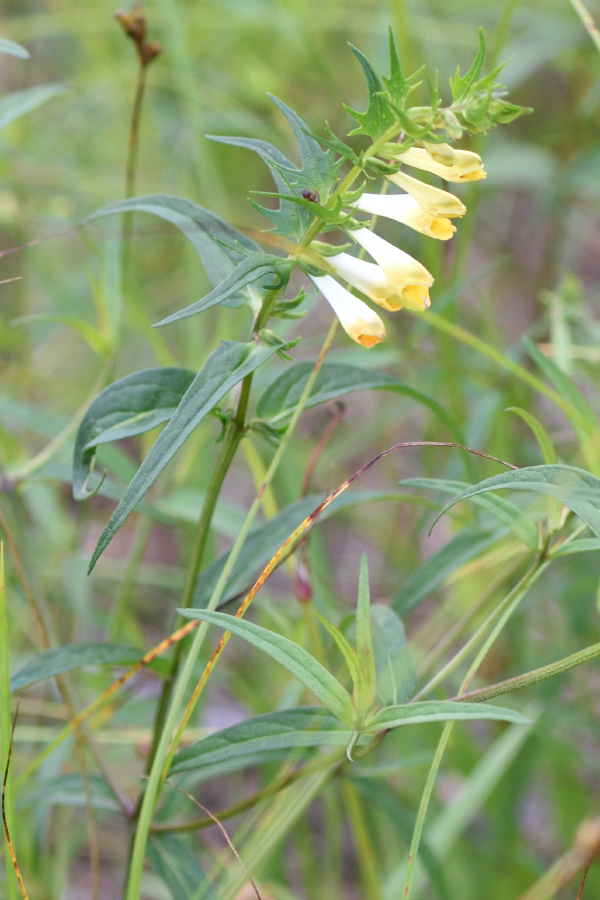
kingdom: Plantae
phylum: Tracheophyta
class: Magnoliopsida
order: Lamiales
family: Orobanchaceae
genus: Melampyrum
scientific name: Melampyrum pratense
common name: Common cow-wheat
